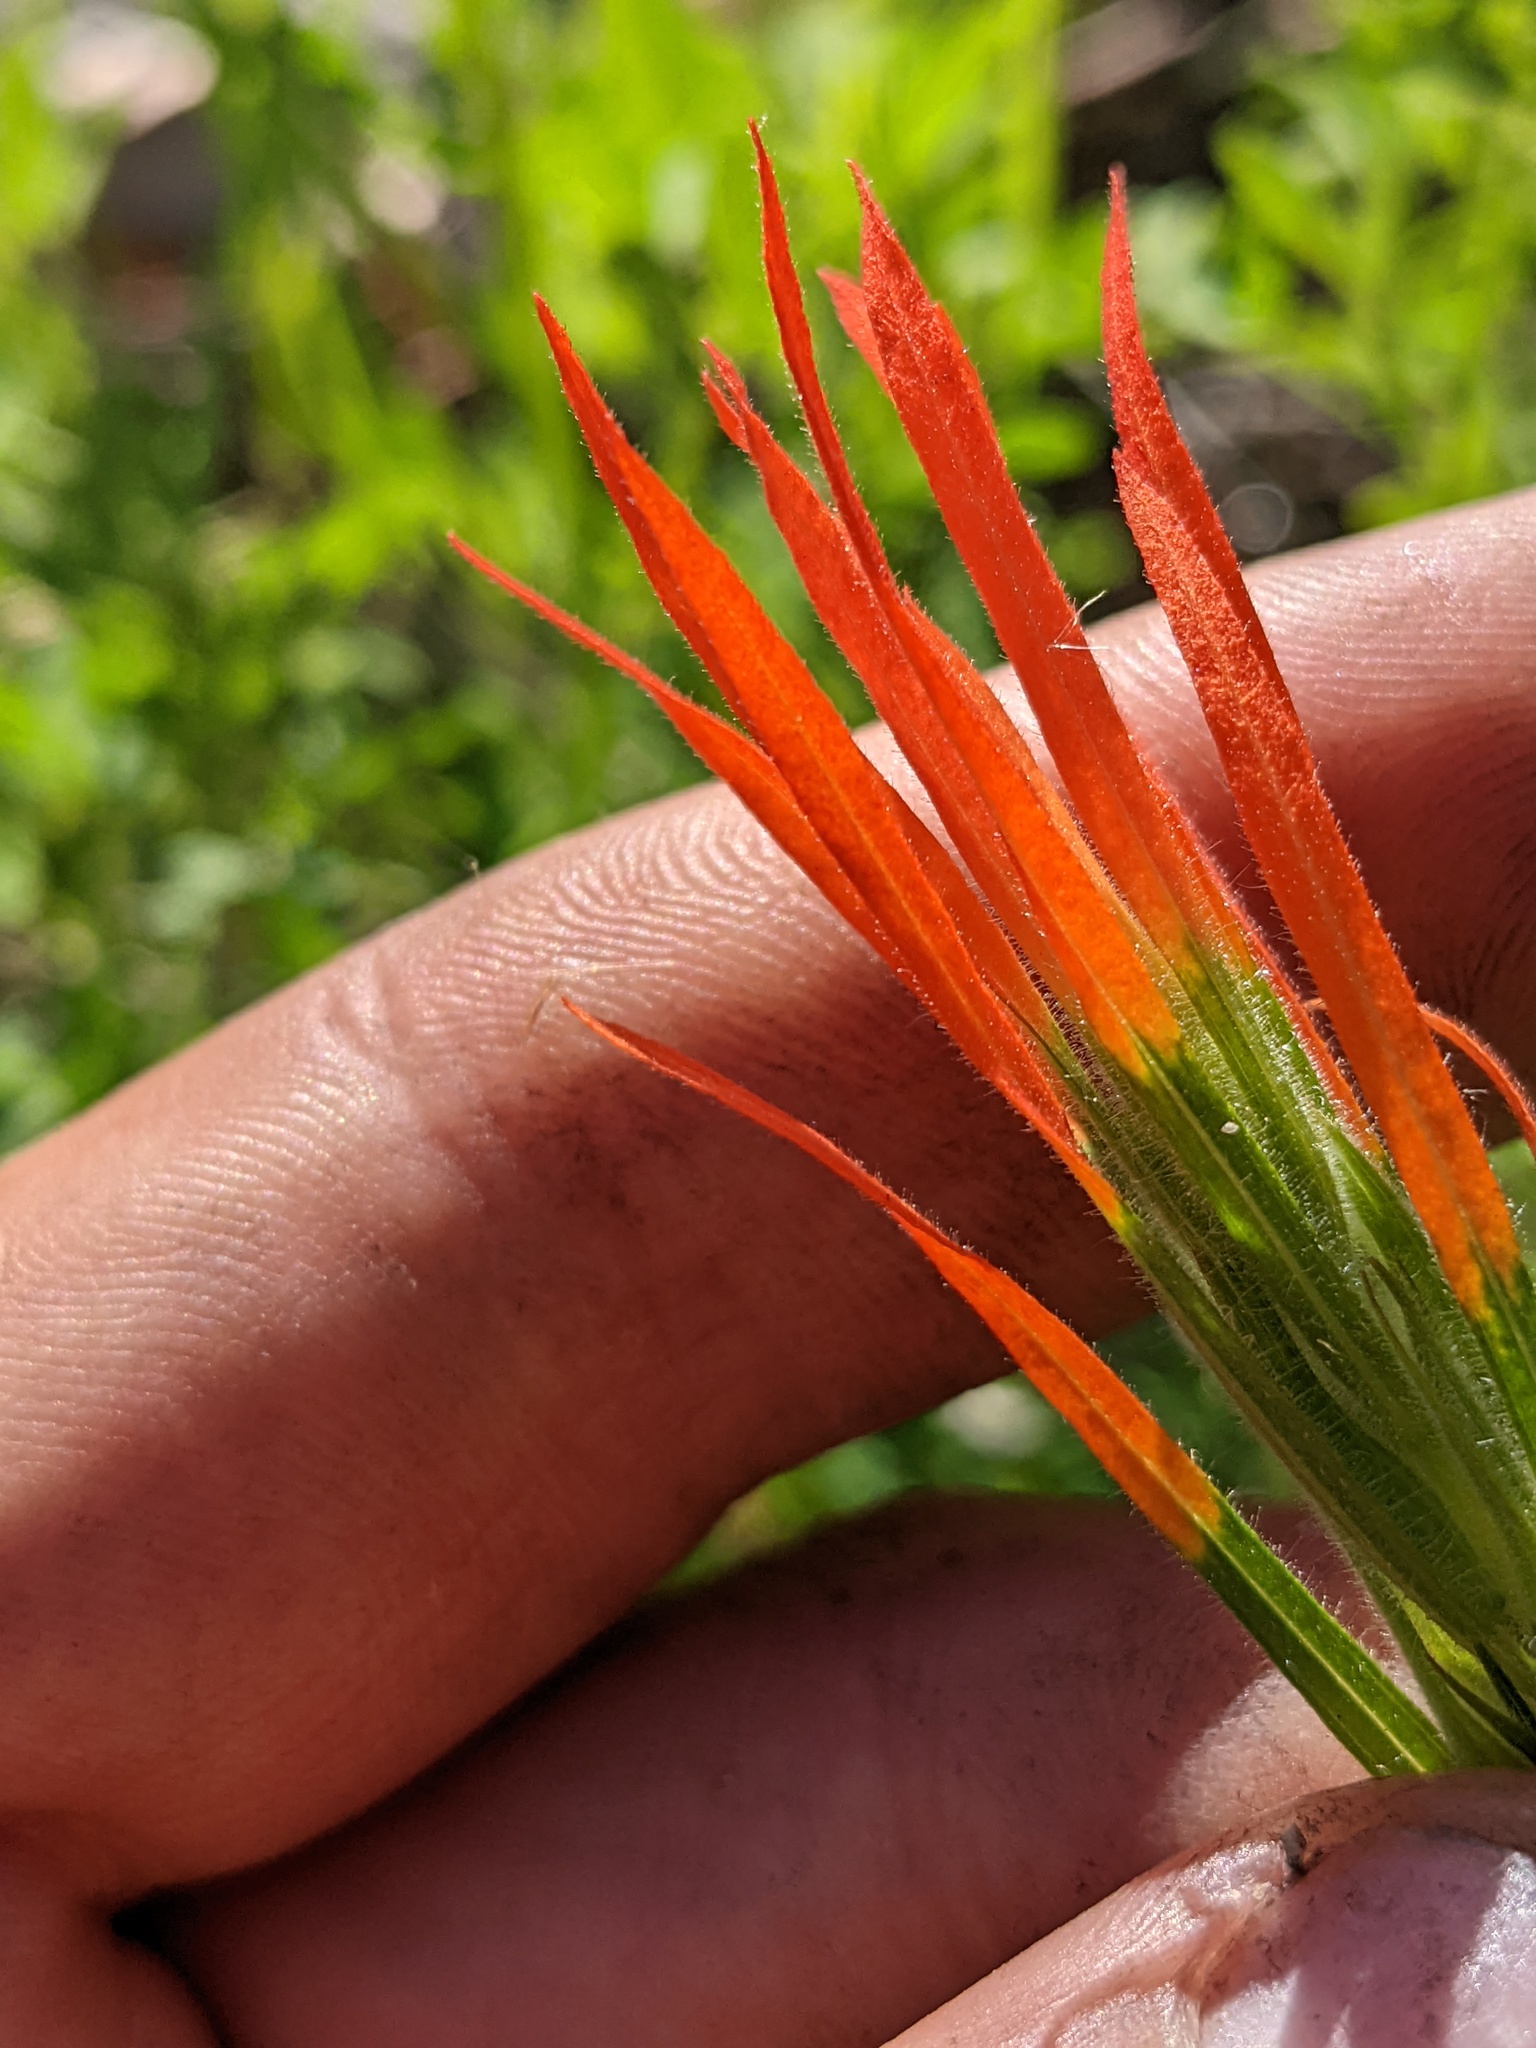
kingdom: Plantae
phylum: Tracheophyta
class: Magnoliopsida
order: Lamiales
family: Orobanchaceae
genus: Castilleja
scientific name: Castilleja minor
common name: Seep paintbrush
